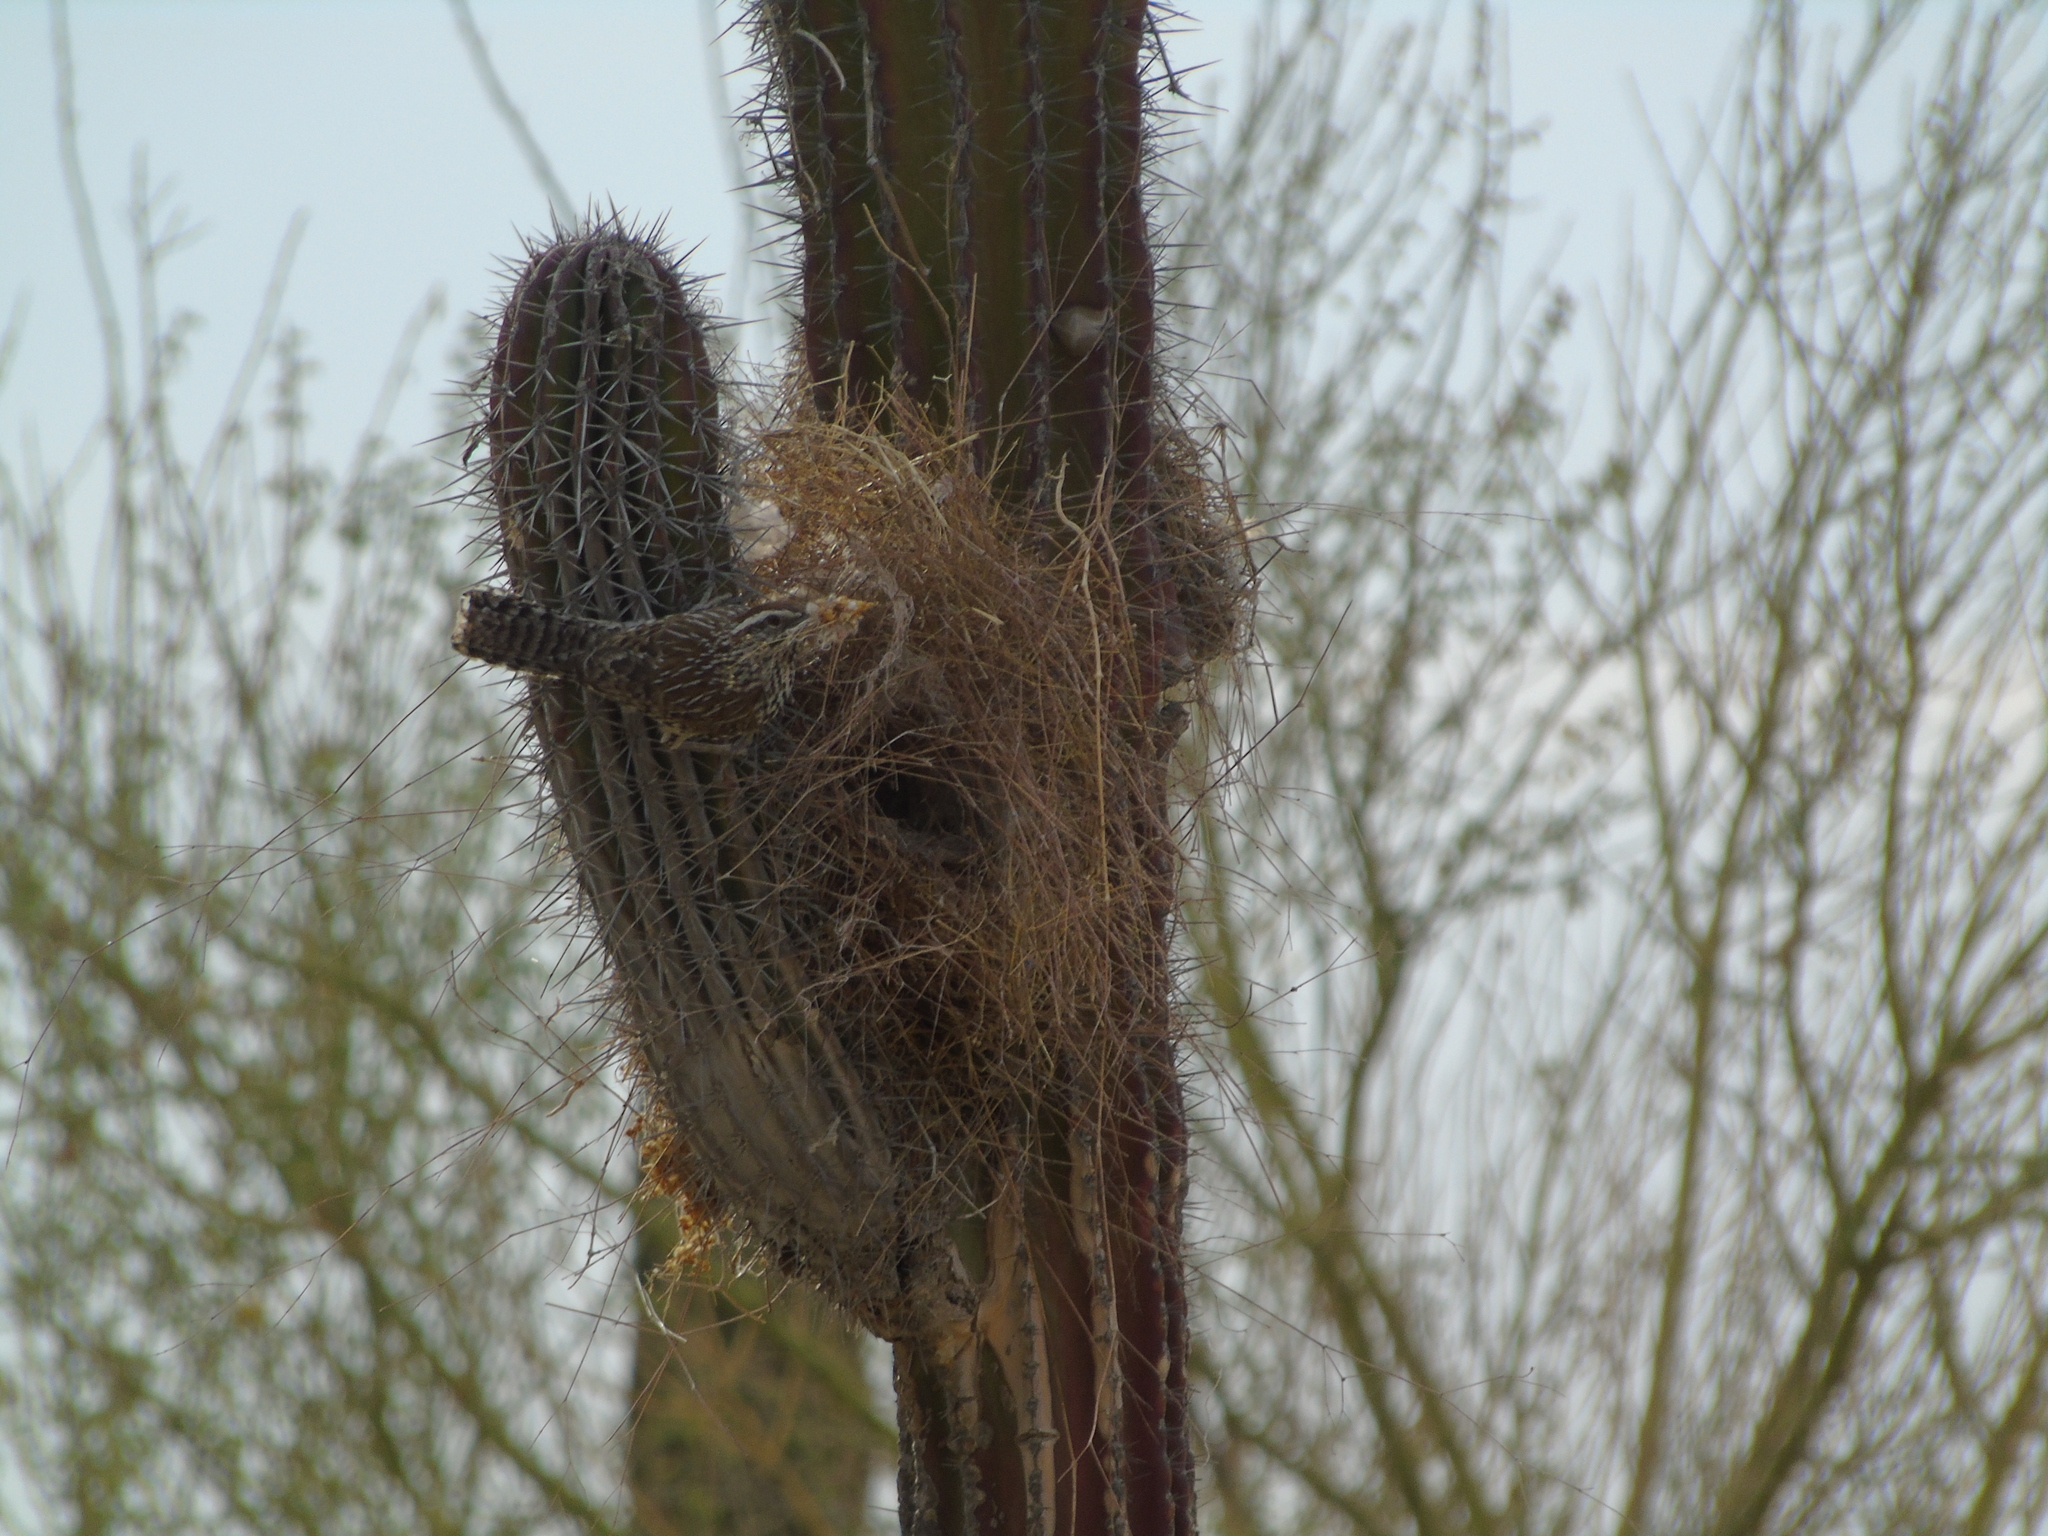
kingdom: Animalia
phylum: Chordata
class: Aves
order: Passeriformes
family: Troglodytidae
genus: Campylorhynchus
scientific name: Campylorhynchus brunneicapillus
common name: Cactus wren
